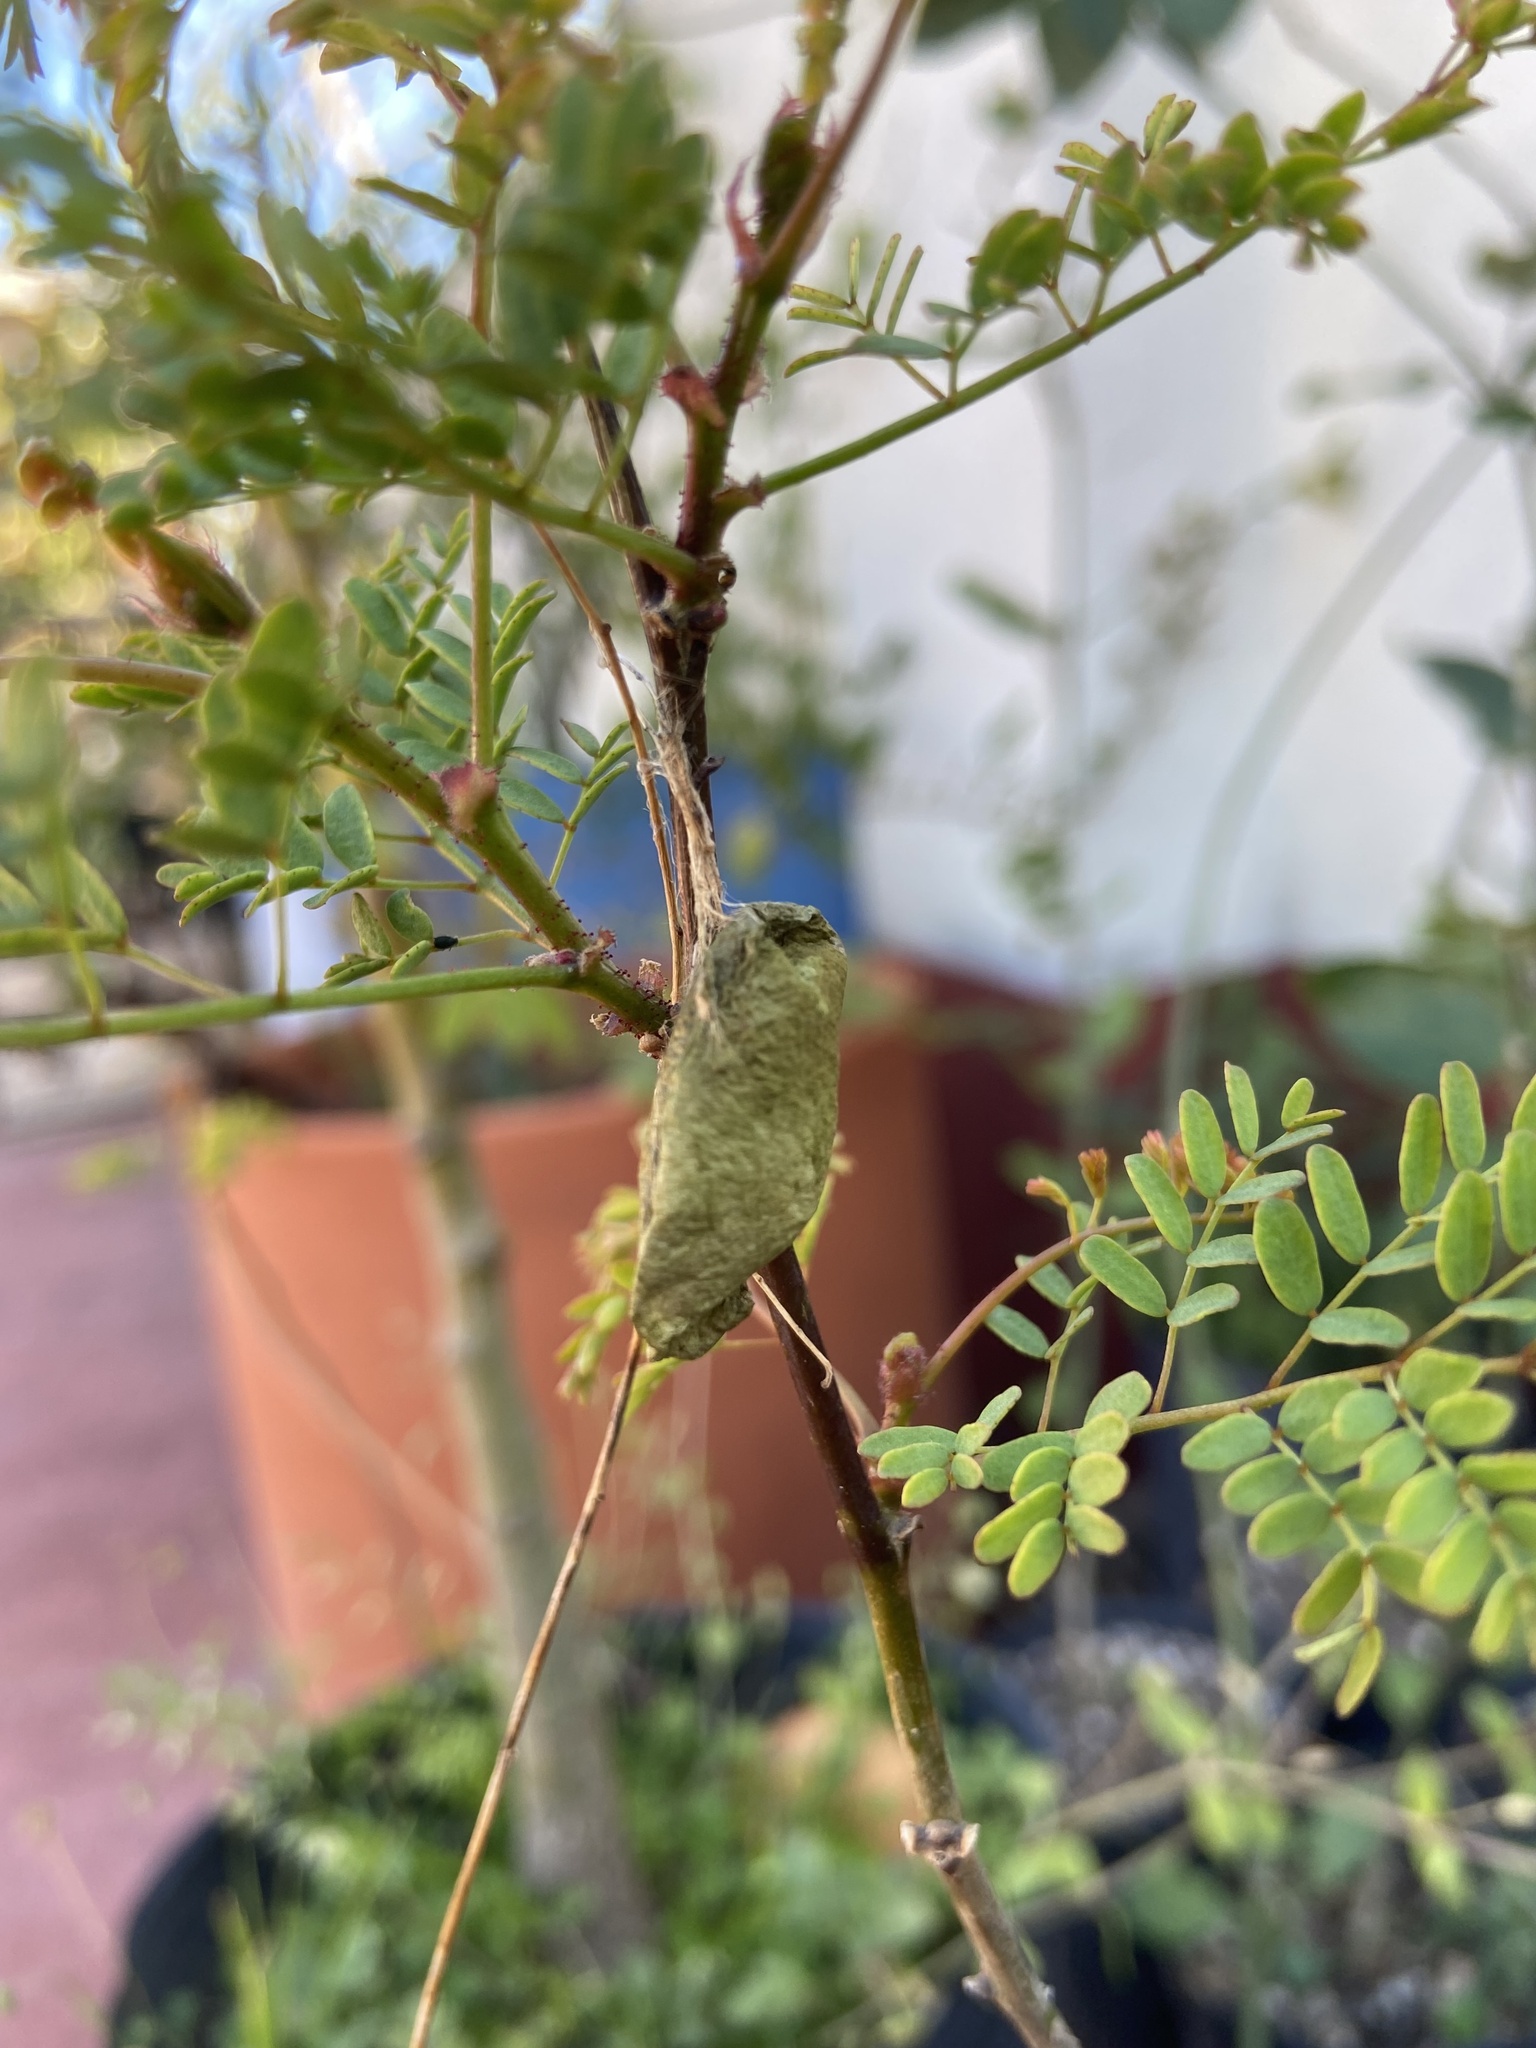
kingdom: Animalia
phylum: Arthropoda
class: Arachnida
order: Araneae
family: Araneidae
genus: Argiope
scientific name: Argiope argentata
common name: Orb weavers
